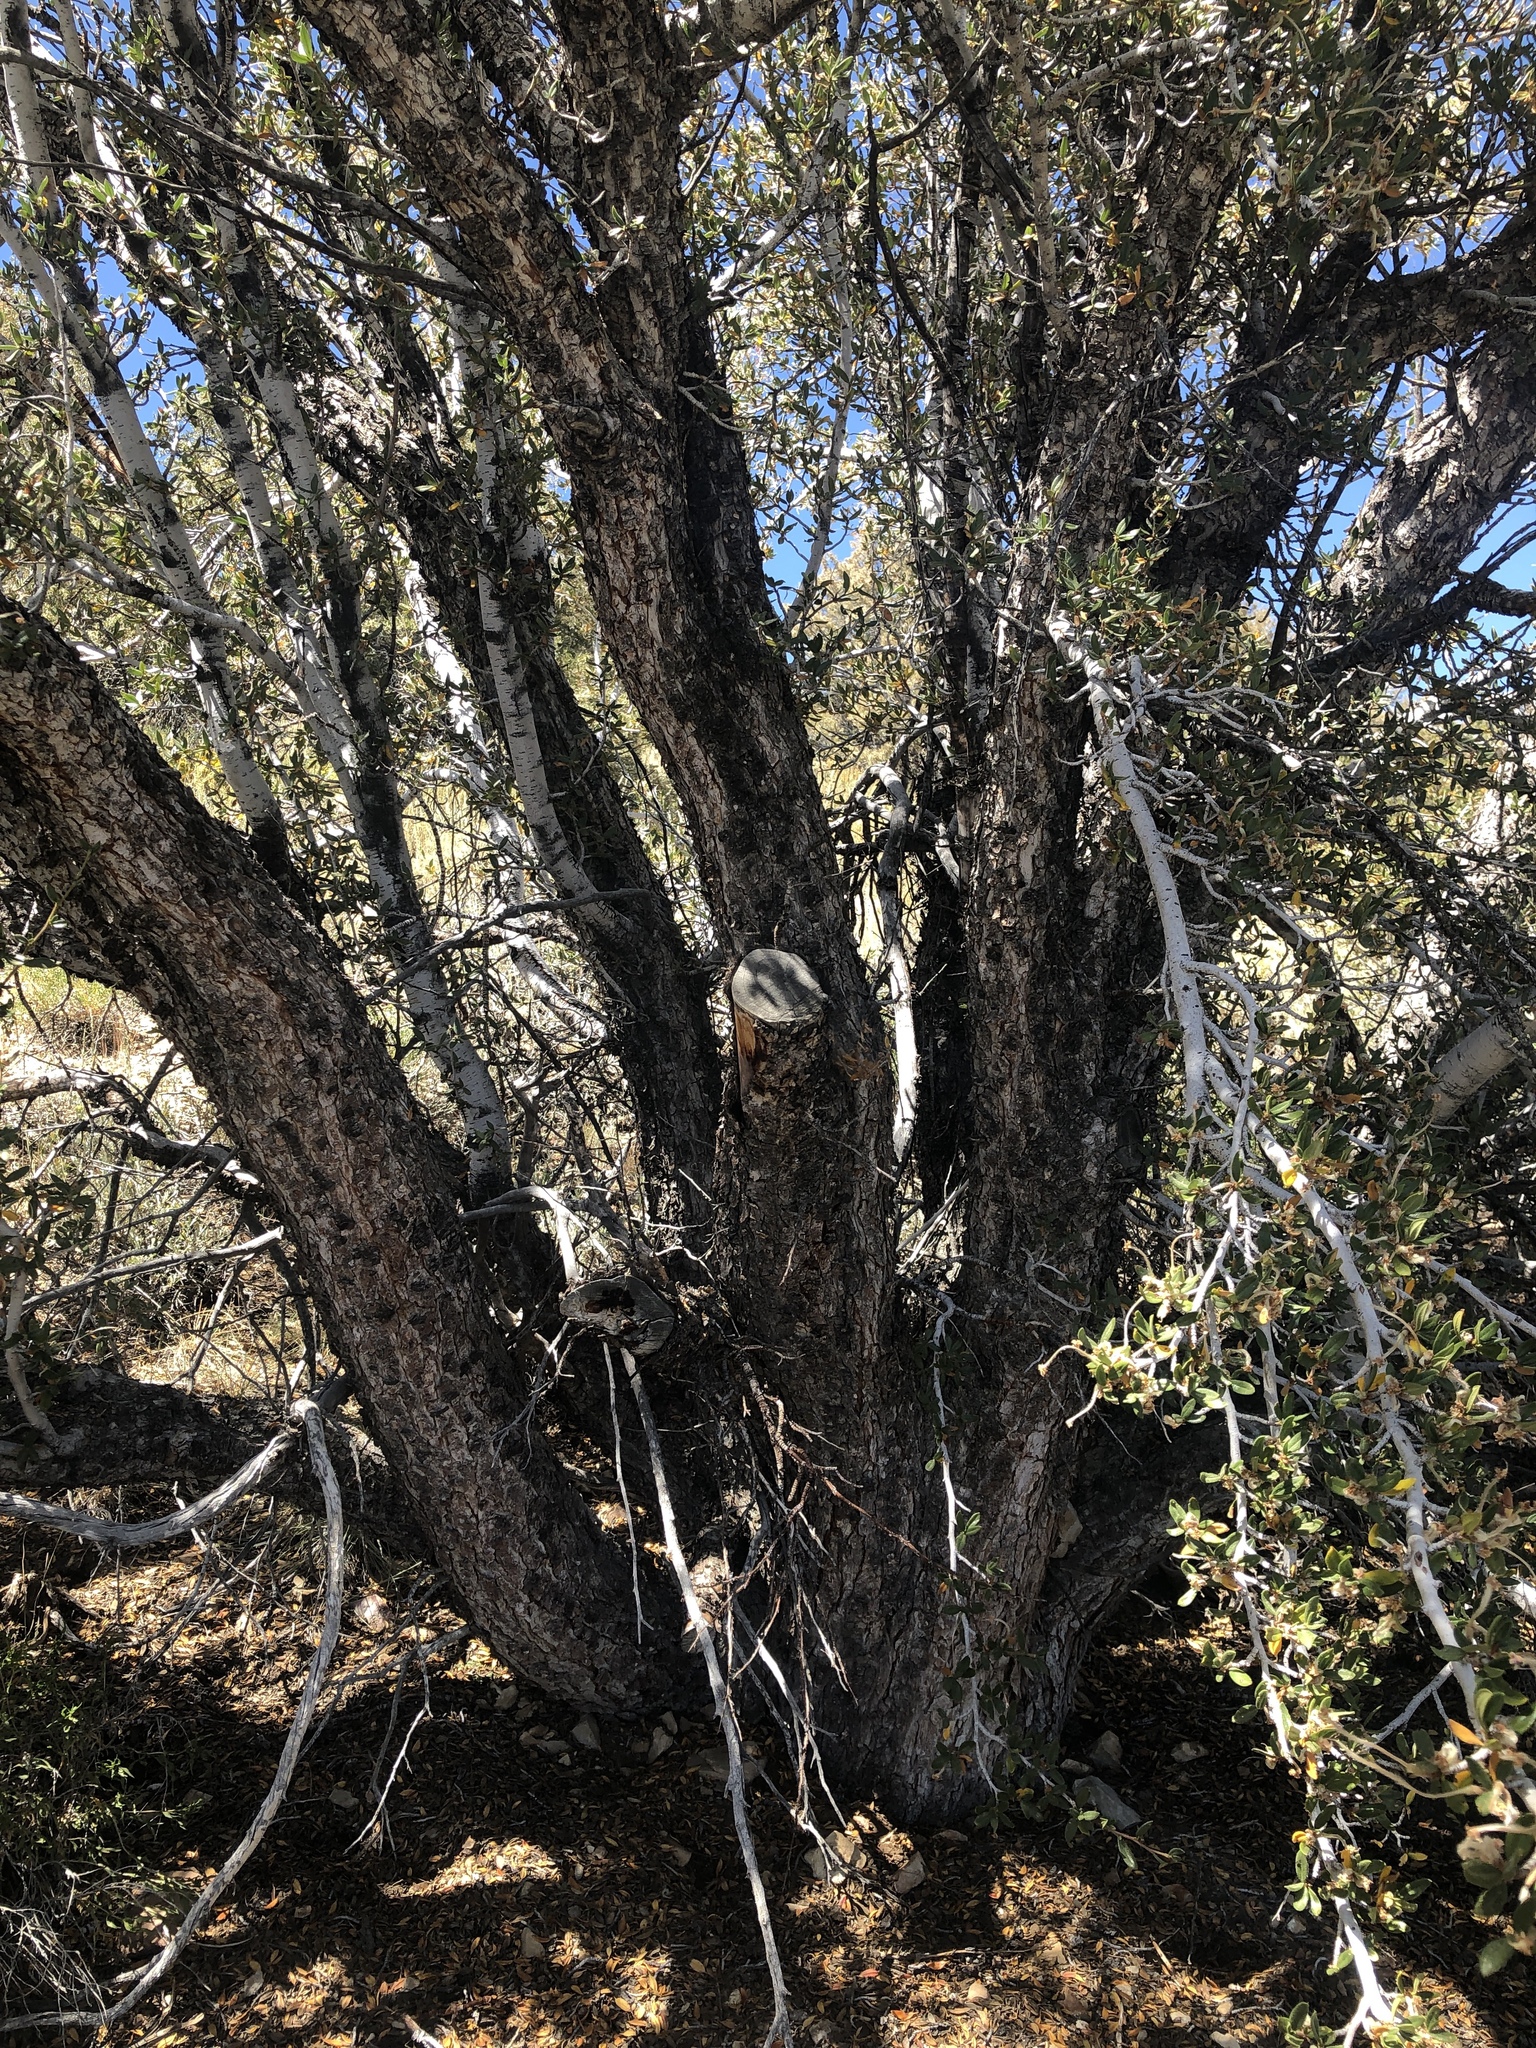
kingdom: Plantae
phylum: Tracheophyta
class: Magnoliopsida
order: Rosales
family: Rosaceae
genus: Cercocarpus
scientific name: Cercocarpus ledifolius
